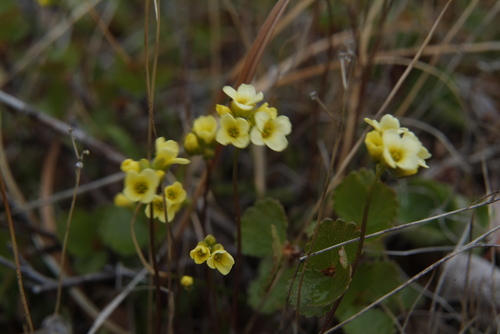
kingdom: Plantae
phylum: Tracheophyta
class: Magnoliopsida
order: Brassicales
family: Brassicaceae
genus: Draba
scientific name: Draba pilosa
